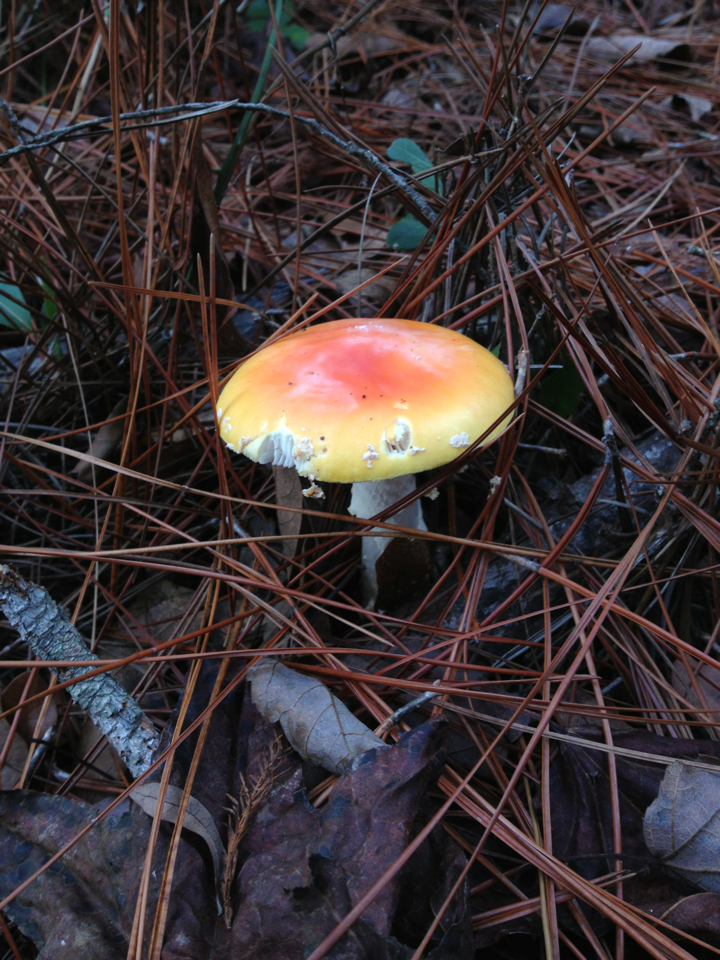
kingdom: Fungi
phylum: Basidiomycota
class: Agaricomycetes
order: Agaricales
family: Amanitaceae
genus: Amanita
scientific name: Amanita persicina
